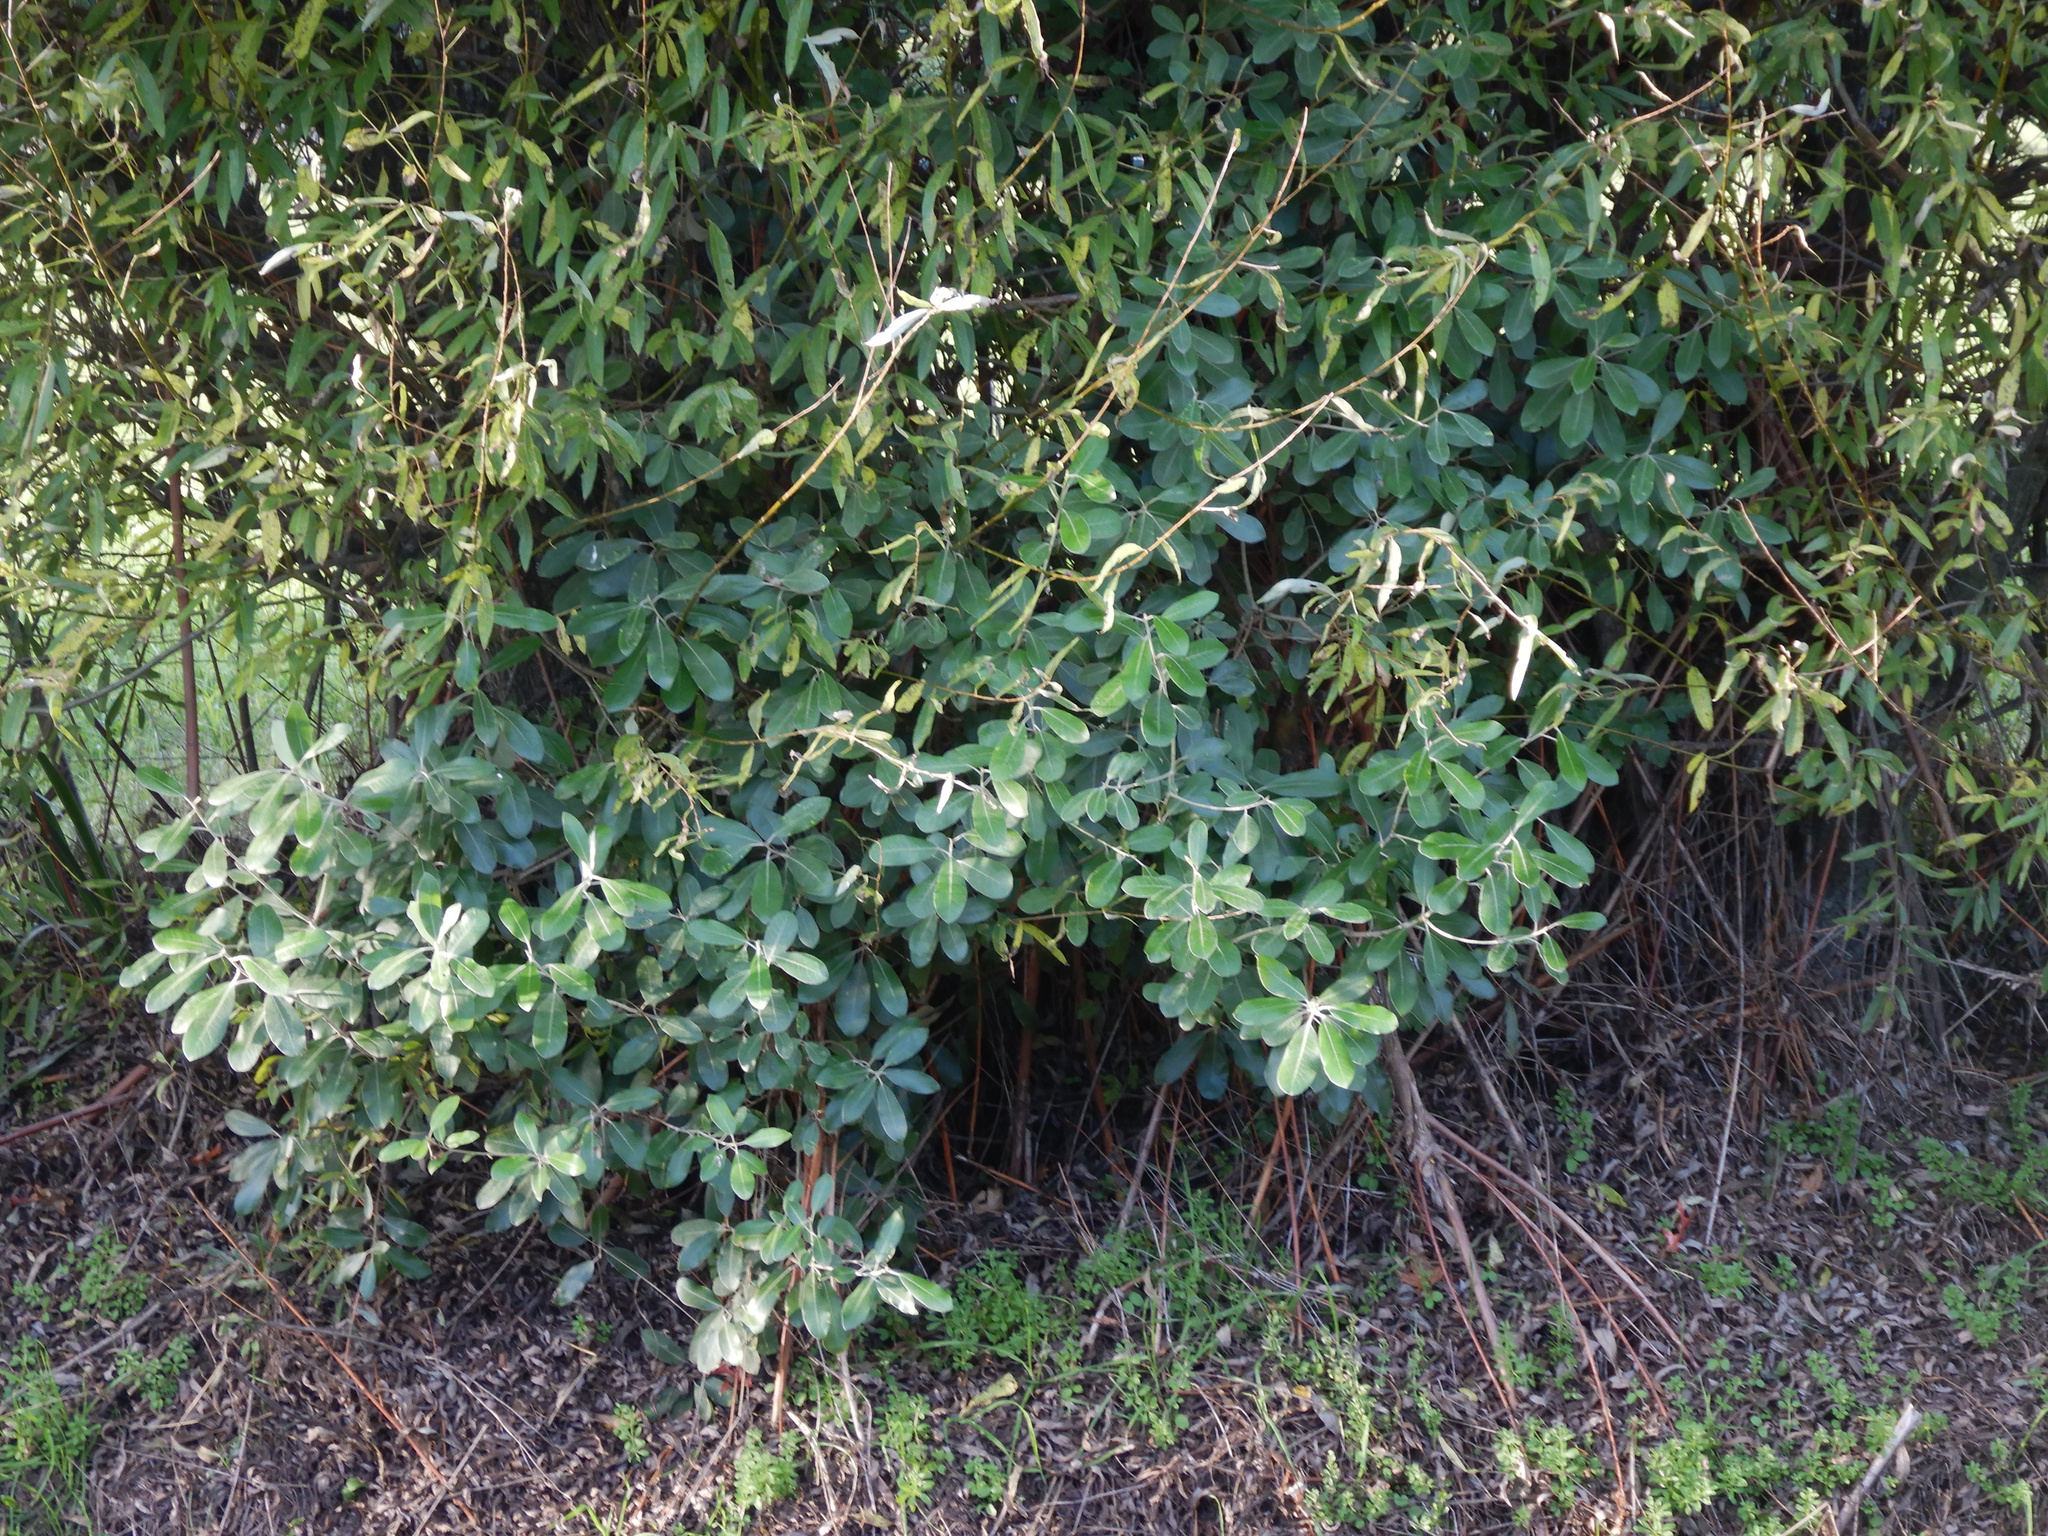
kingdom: Plantae
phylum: Tracheophyta
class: Magnoliopsida
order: Apiales
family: Pittosporaceae
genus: Pittosporum
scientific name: Pittosporum ralphii
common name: Ralph's desertwillow
